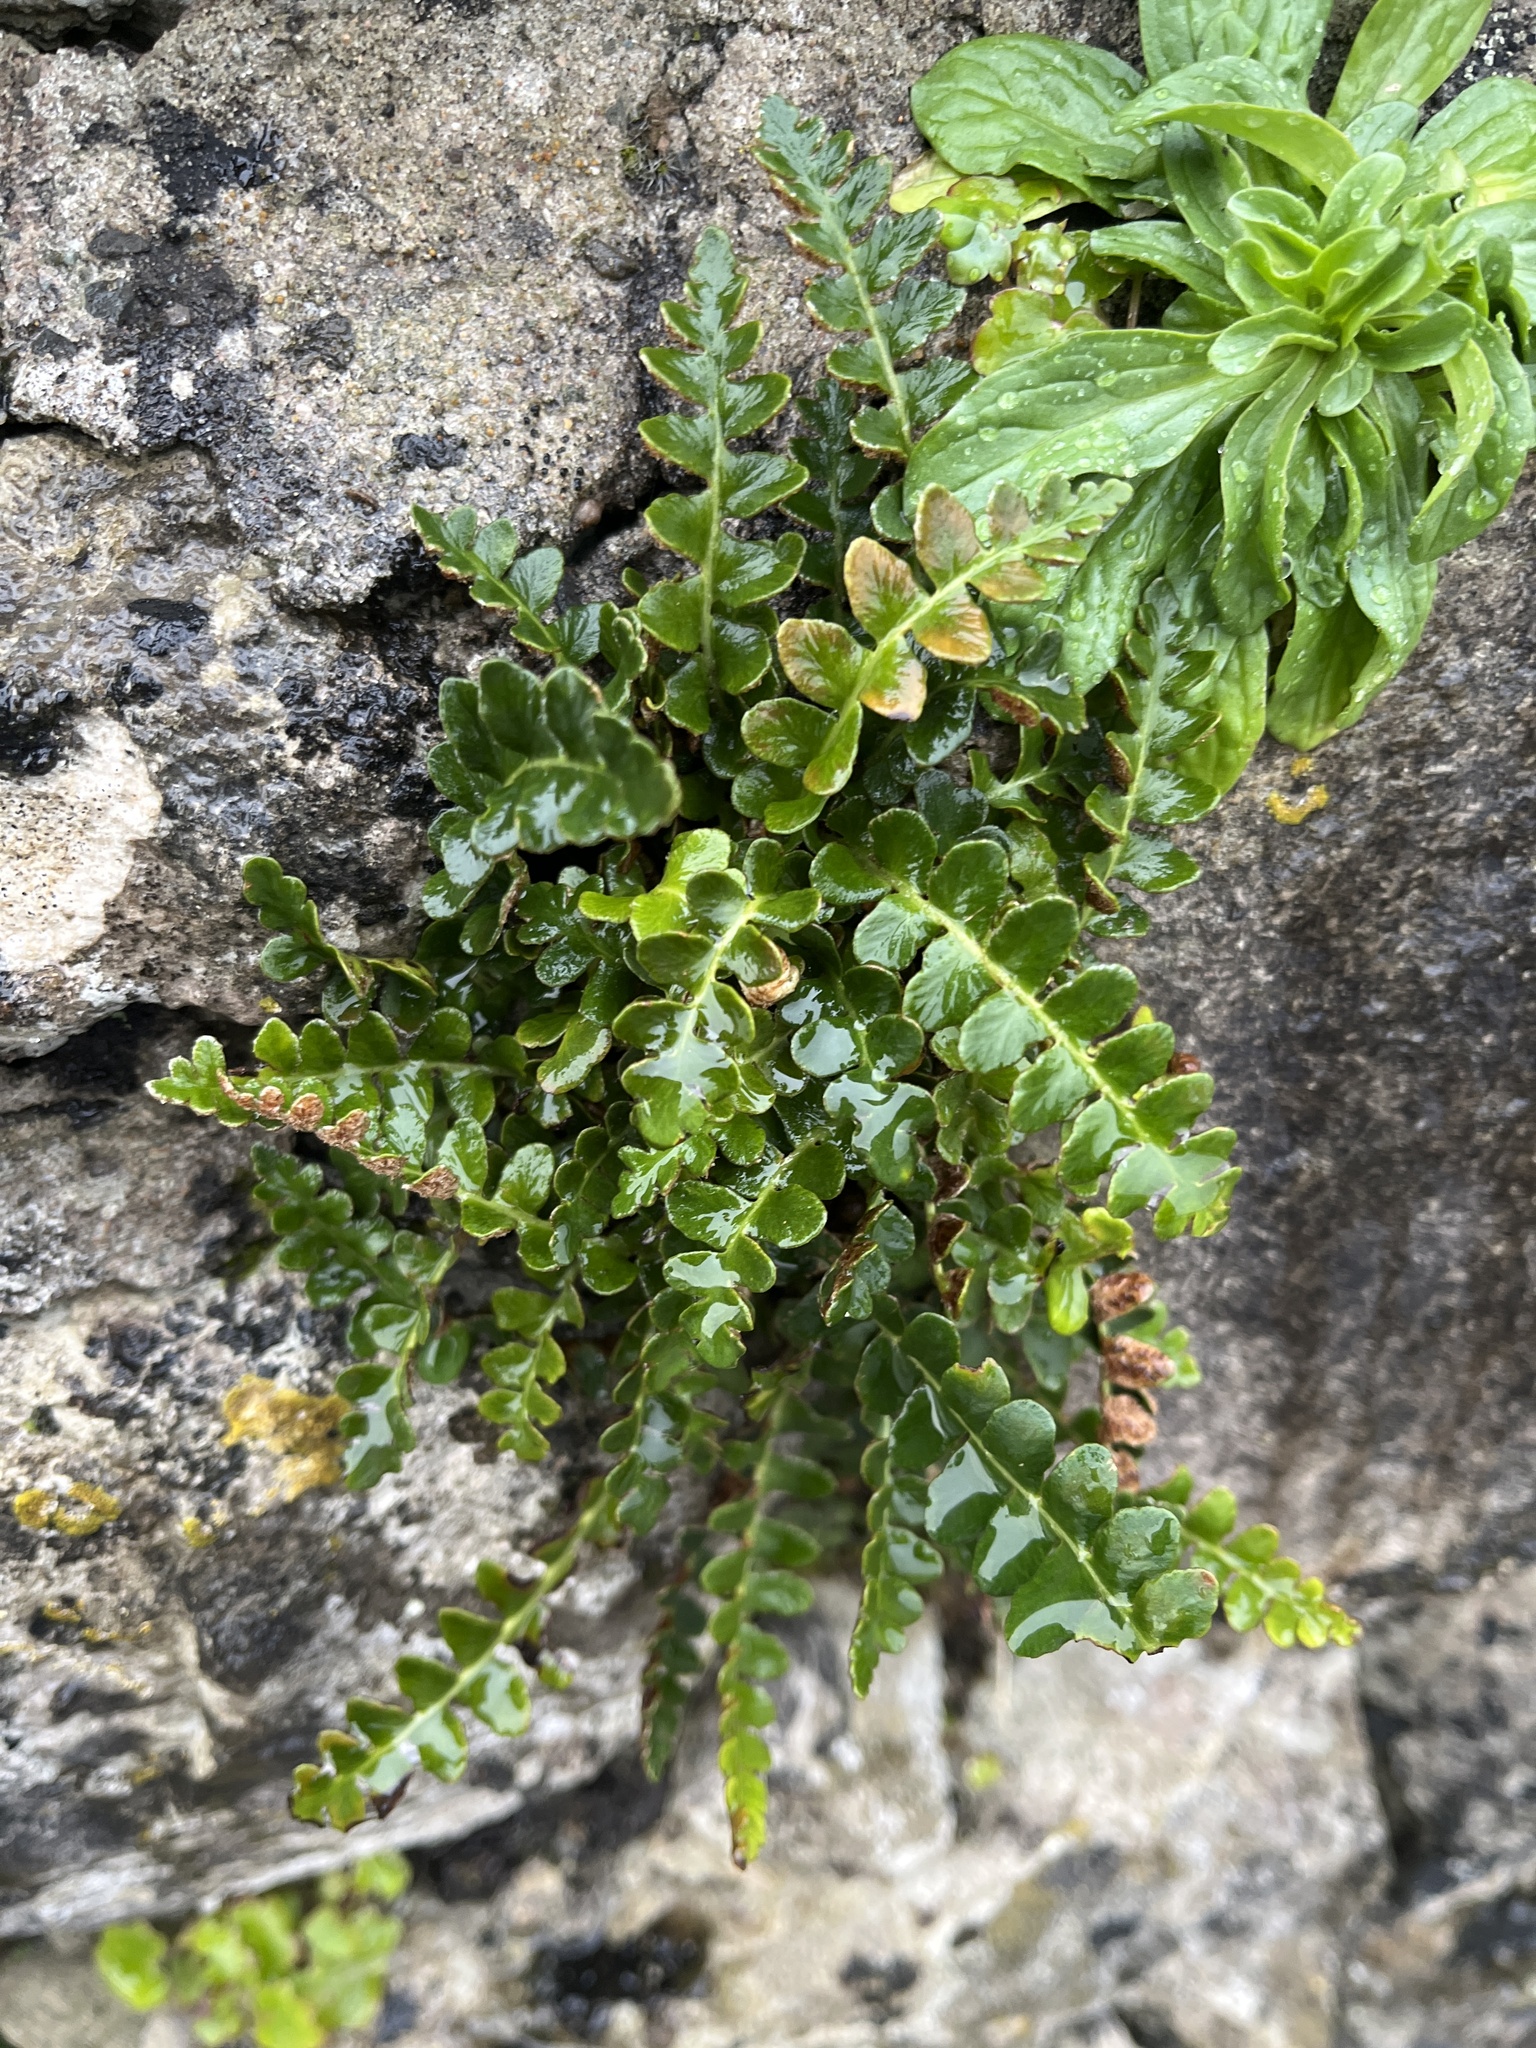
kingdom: Plantae
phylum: Tracheophyta
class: Polypodiopsida
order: Polypodiales
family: Aspleniaceae
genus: Asplenium
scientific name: Asplenium ceterach
